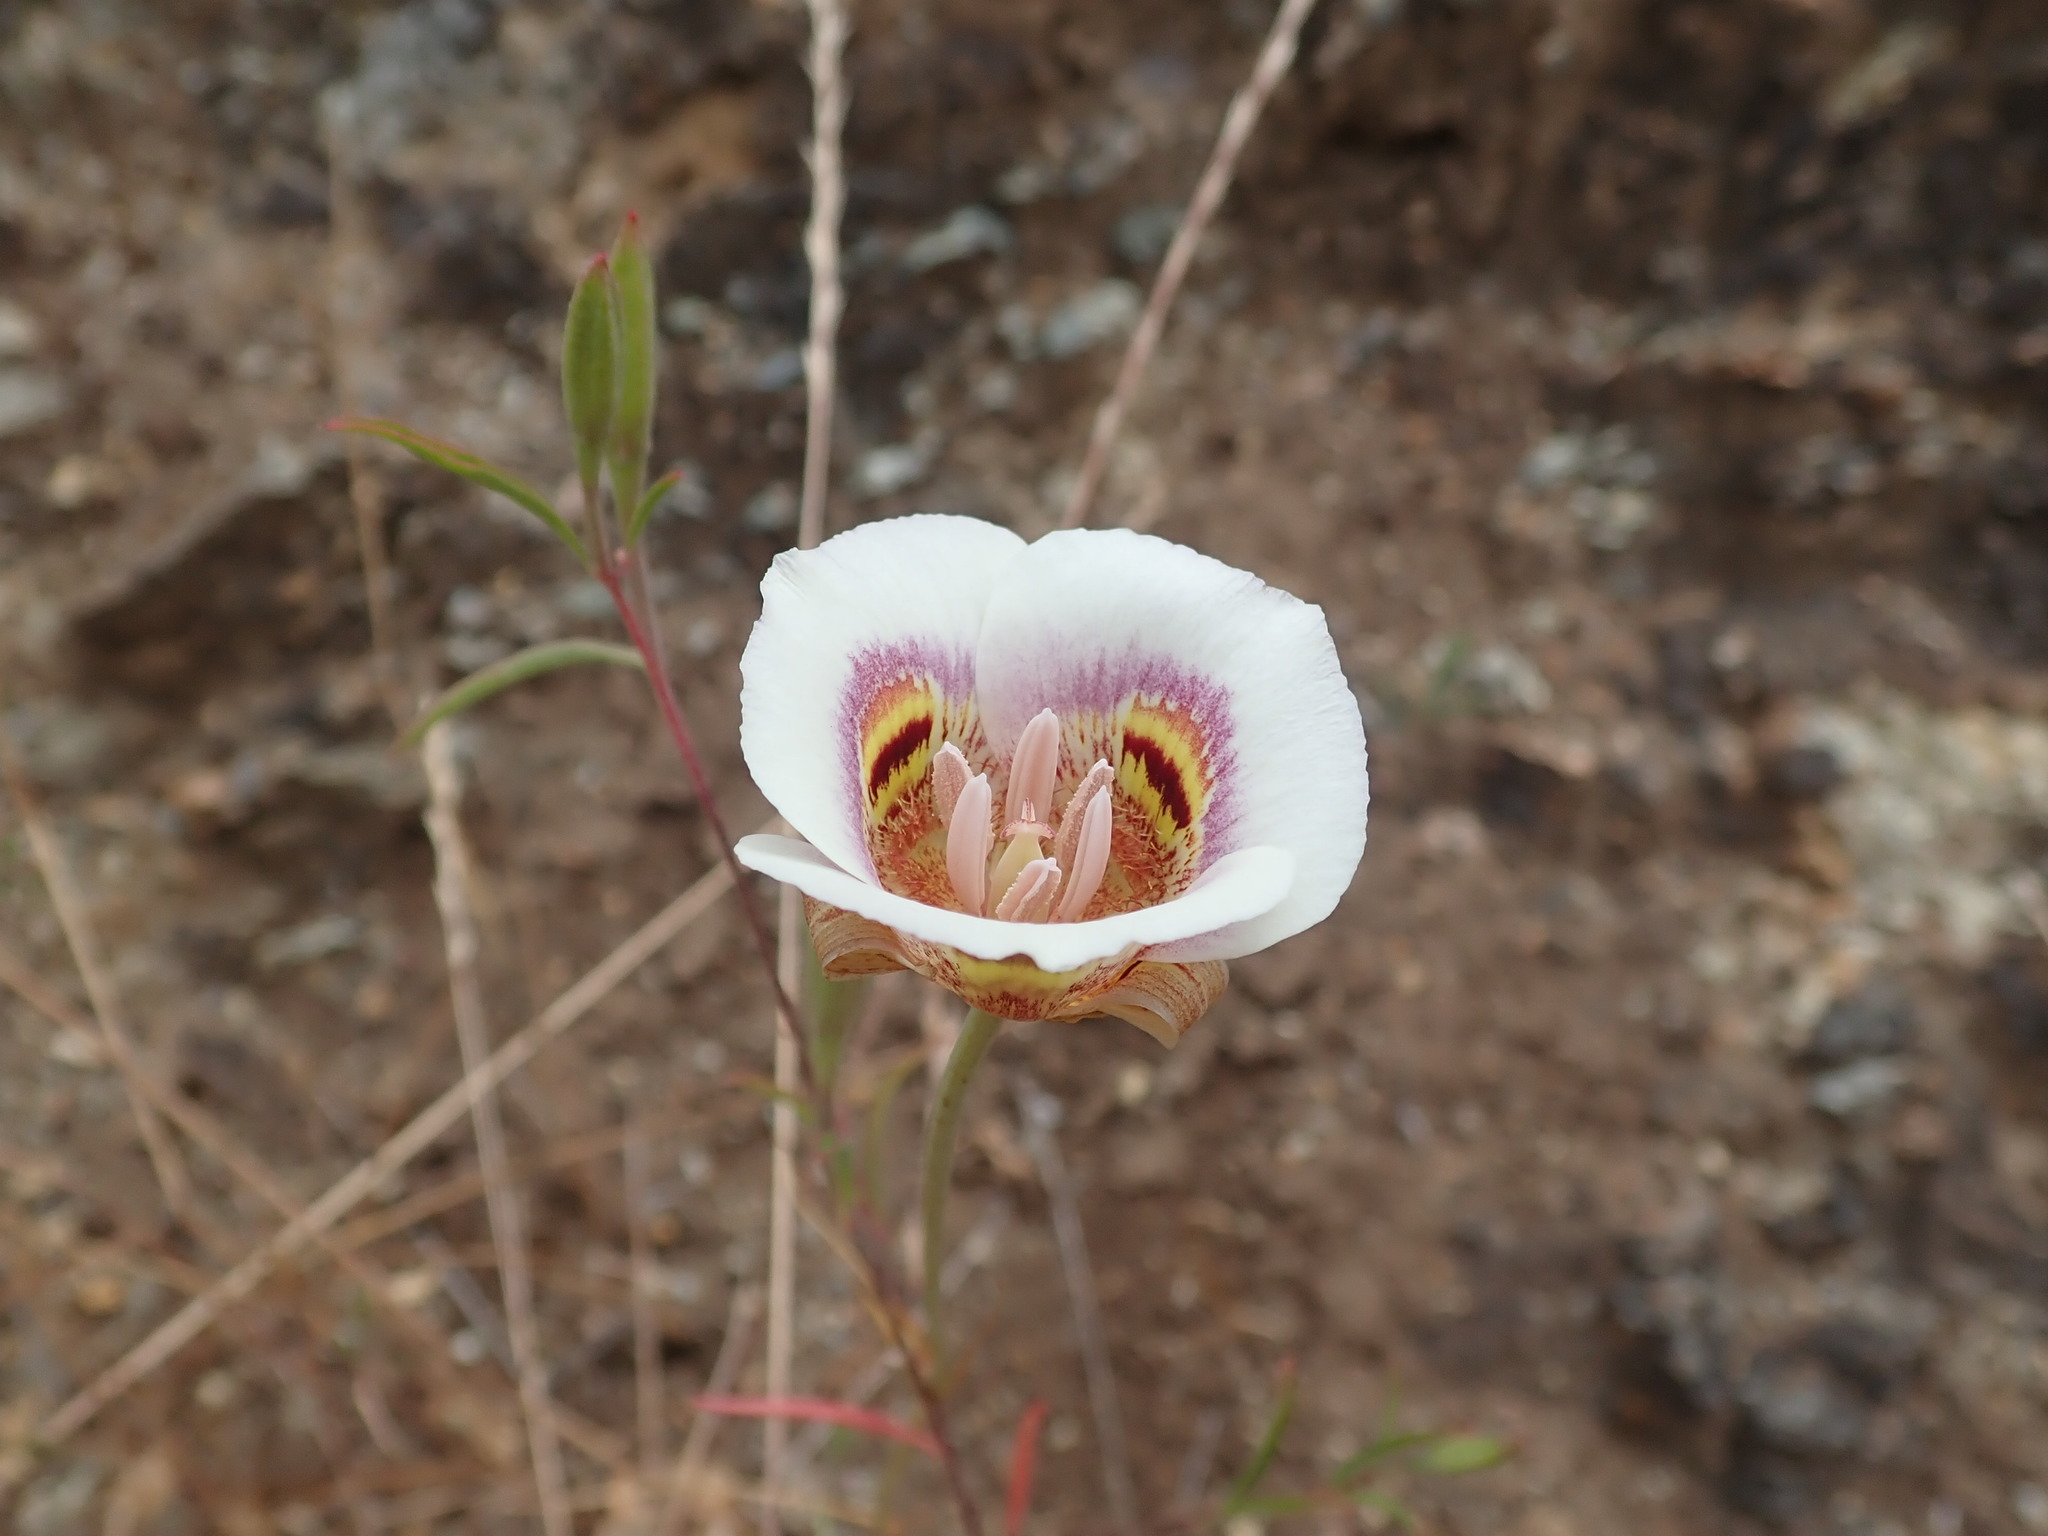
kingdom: Plantae
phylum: Tracheophyta
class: Liliopsida
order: Liliales
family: Liliaceae
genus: Calochortus
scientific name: Calochortus argillosus
